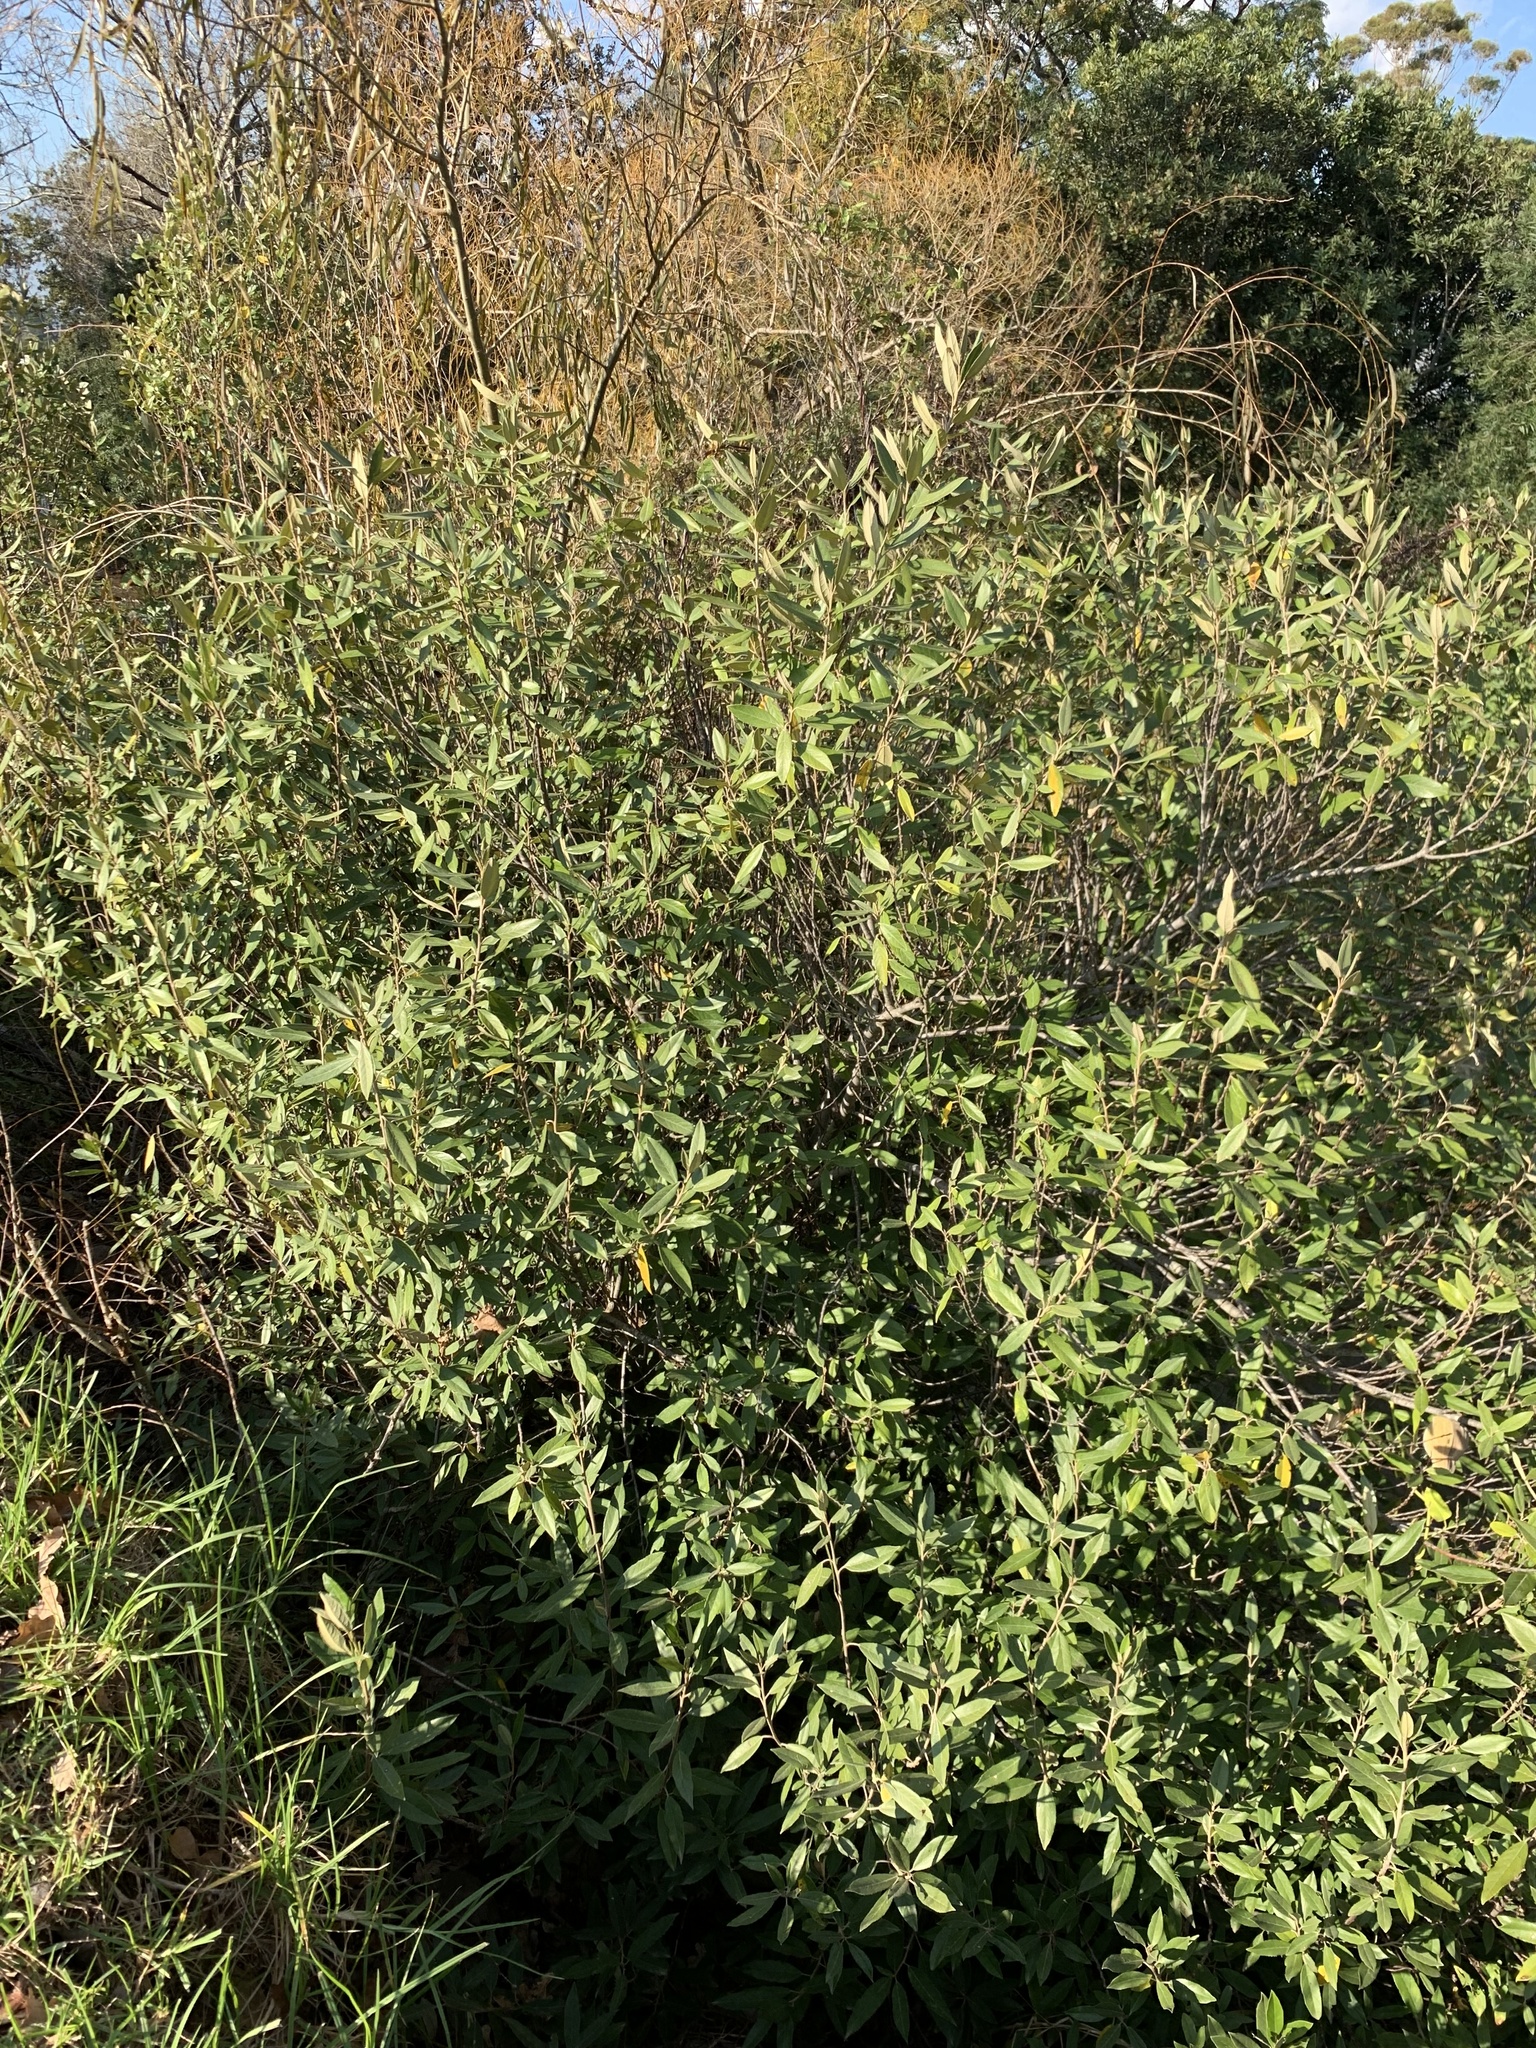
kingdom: Plantae
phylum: Tracheophyta
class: Magnoliopsida
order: Malpighiales
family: Achariaceae
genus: Kiggelaria
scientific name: Kiggelaria africana
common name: Wild peach
